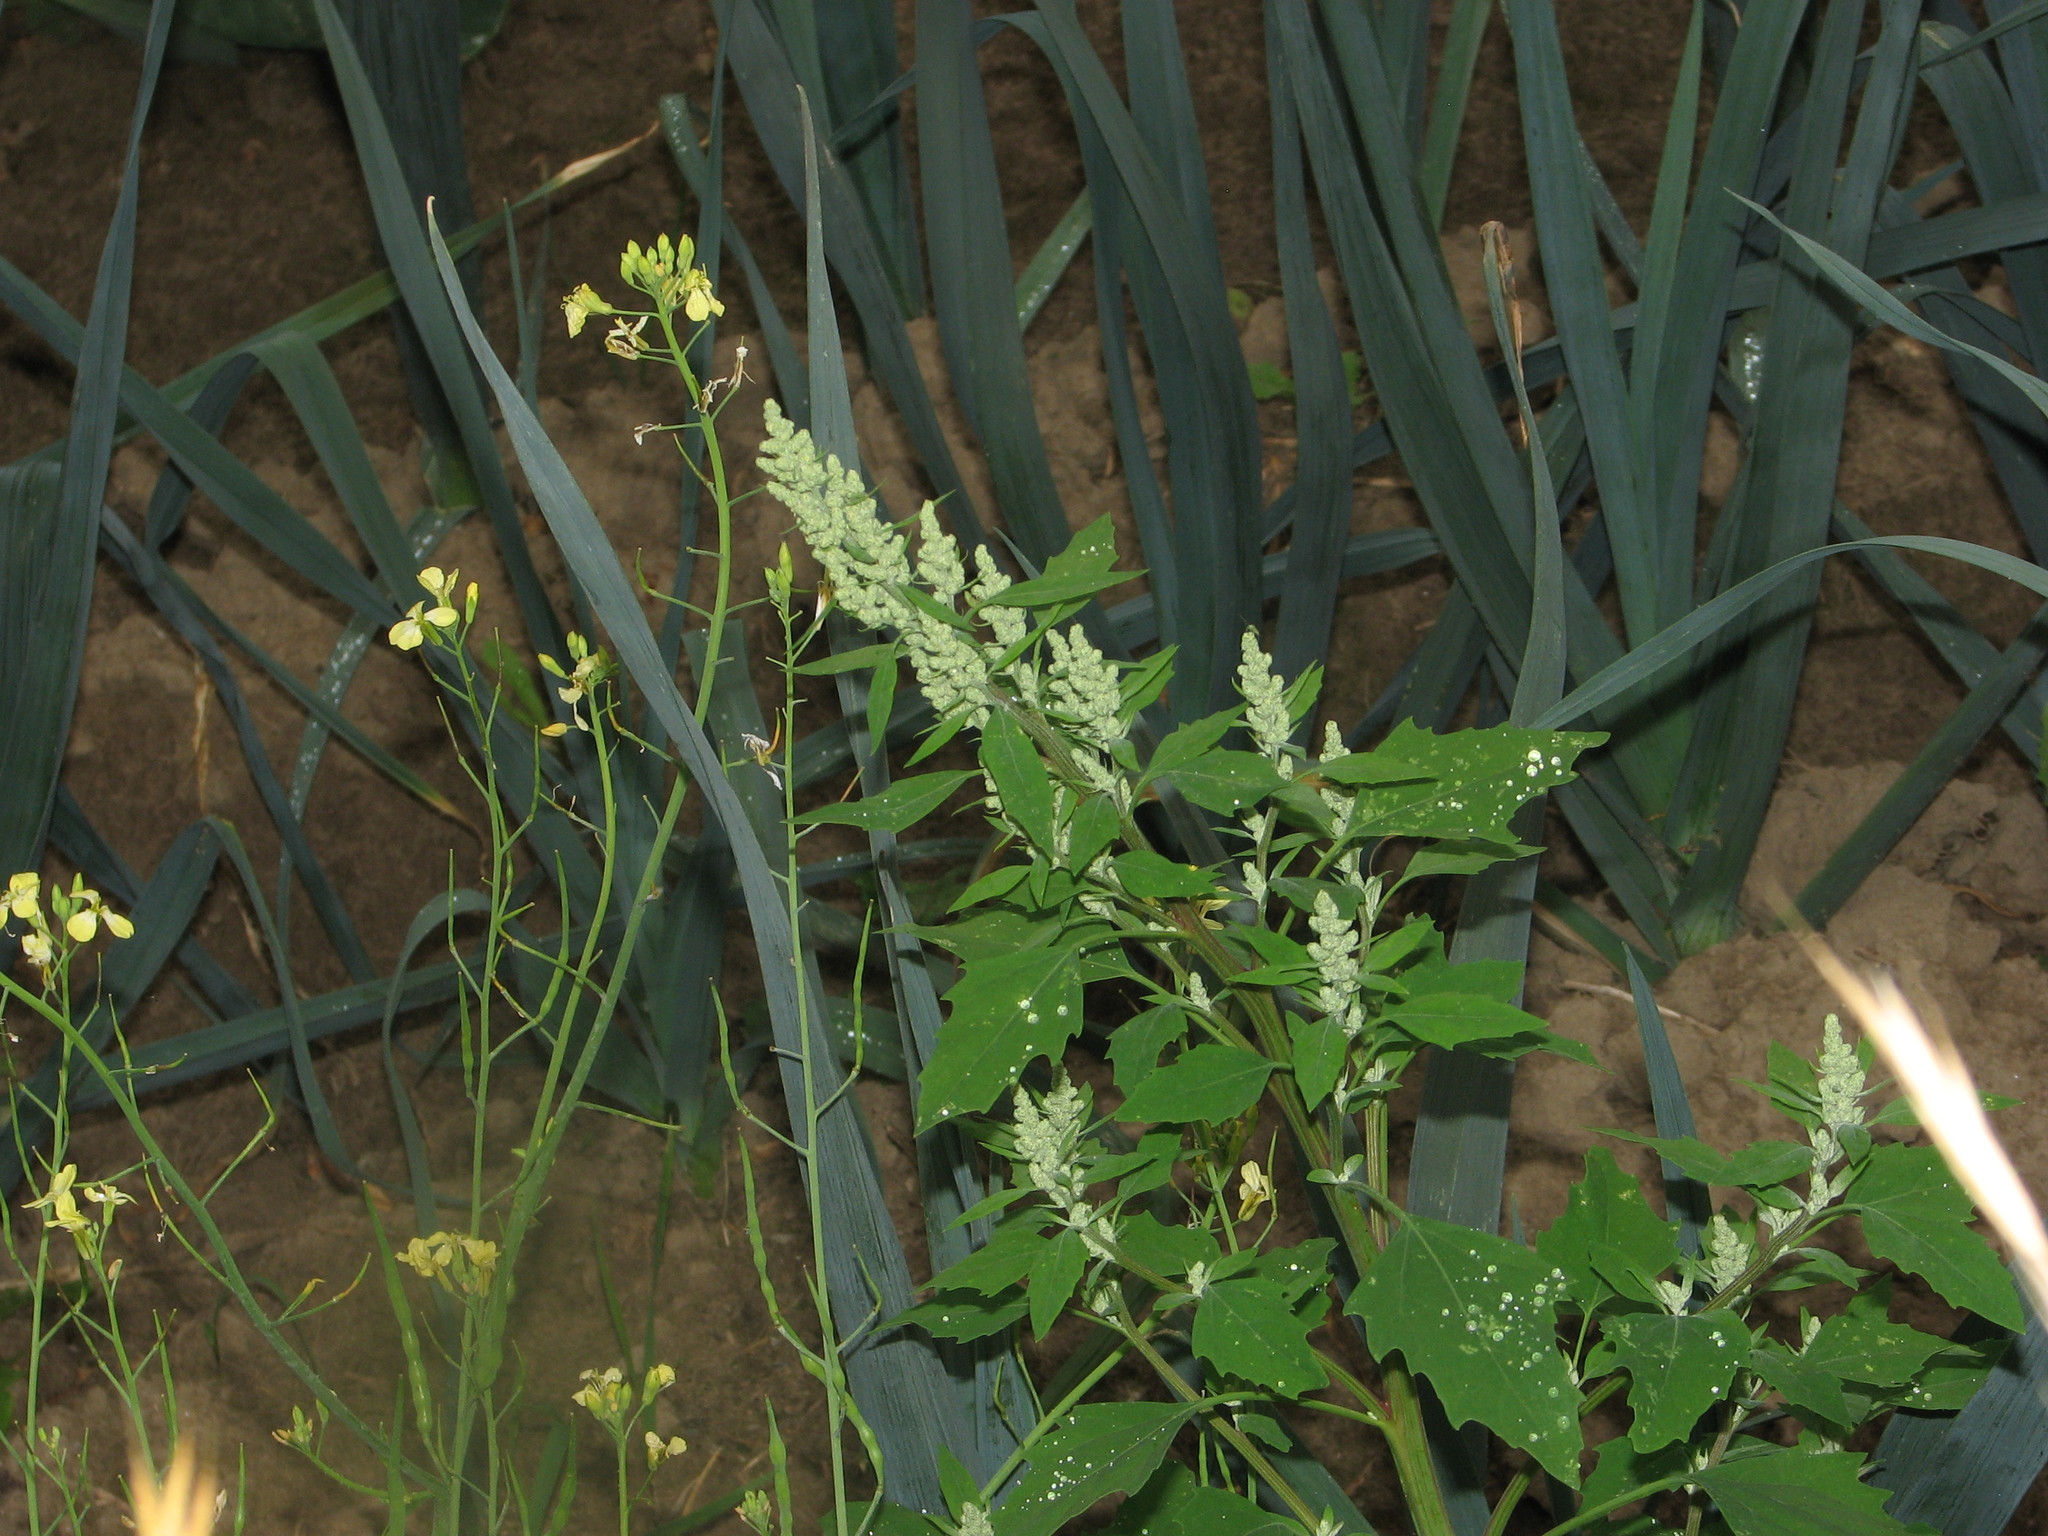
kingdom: Plantae
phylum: Tracheophyta
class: Magnoliopsida
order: Caryophyllales
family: Amaranthaceae
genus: Chenopodium
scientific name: Chenopodium album
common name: Fat-hen
